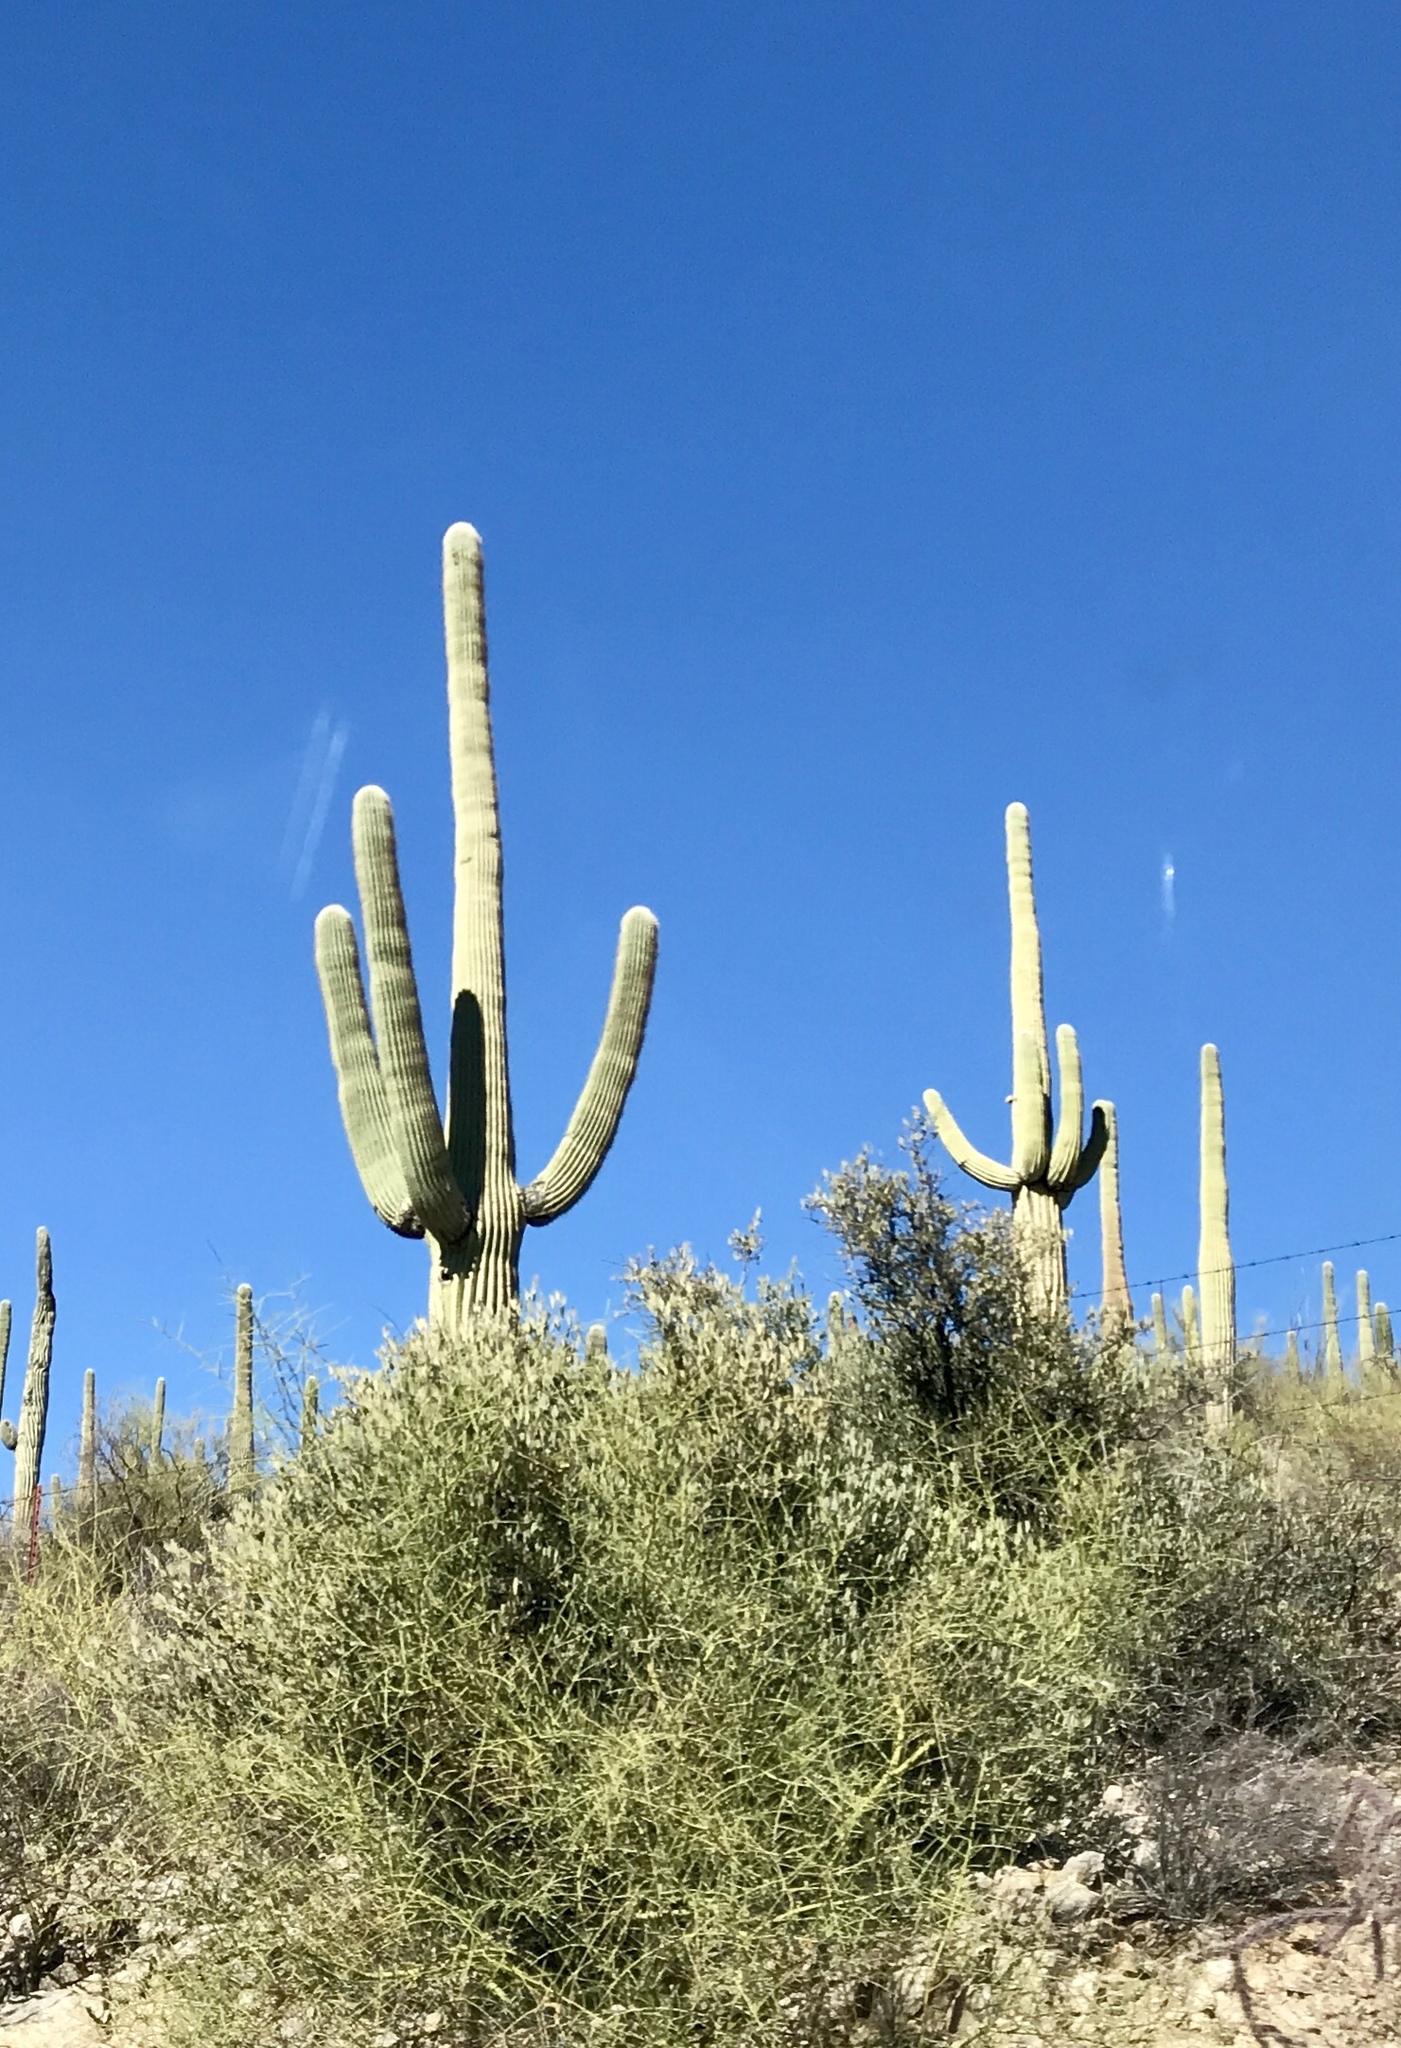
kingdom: Plantae
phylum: Tracheophyta
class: Magnoliopsida
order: Caryophyllales
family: Cactaceae
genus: Carnegiea
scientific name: Carnegiea gigantea
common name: Saguaro
